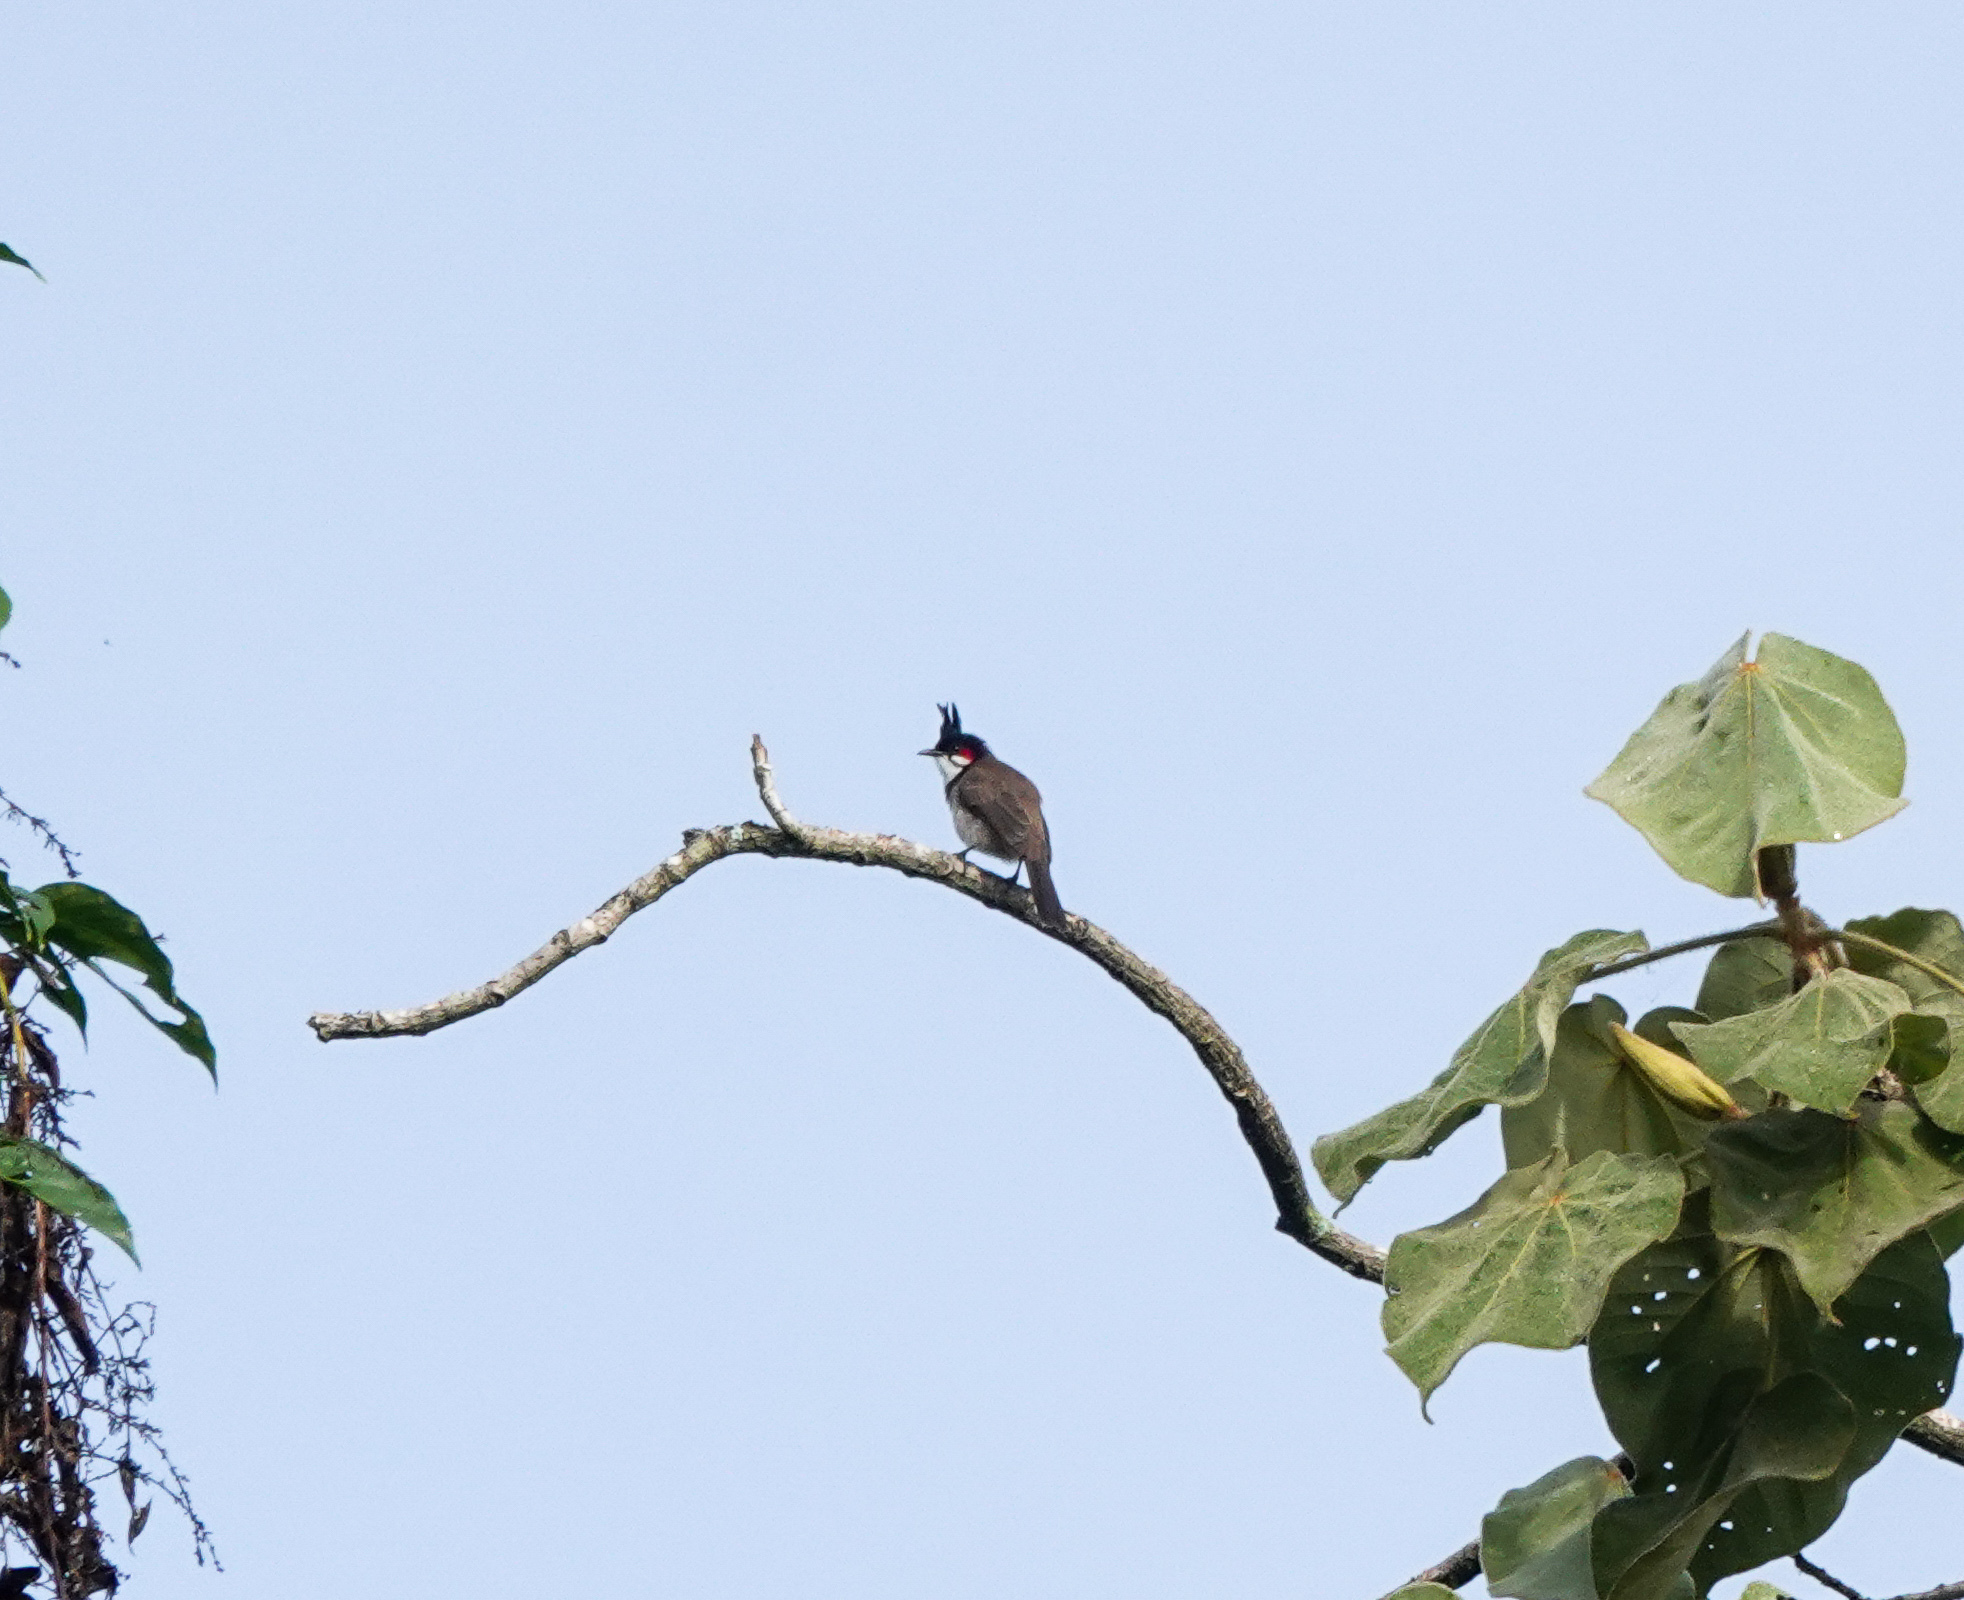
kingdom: Animalia
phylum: Chordata
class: Aves
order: Passeriformes
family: Pycnonotidae
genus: Pycnonotus
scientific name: Pycnonotus jocosus
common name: Red-whiskered bulbul
